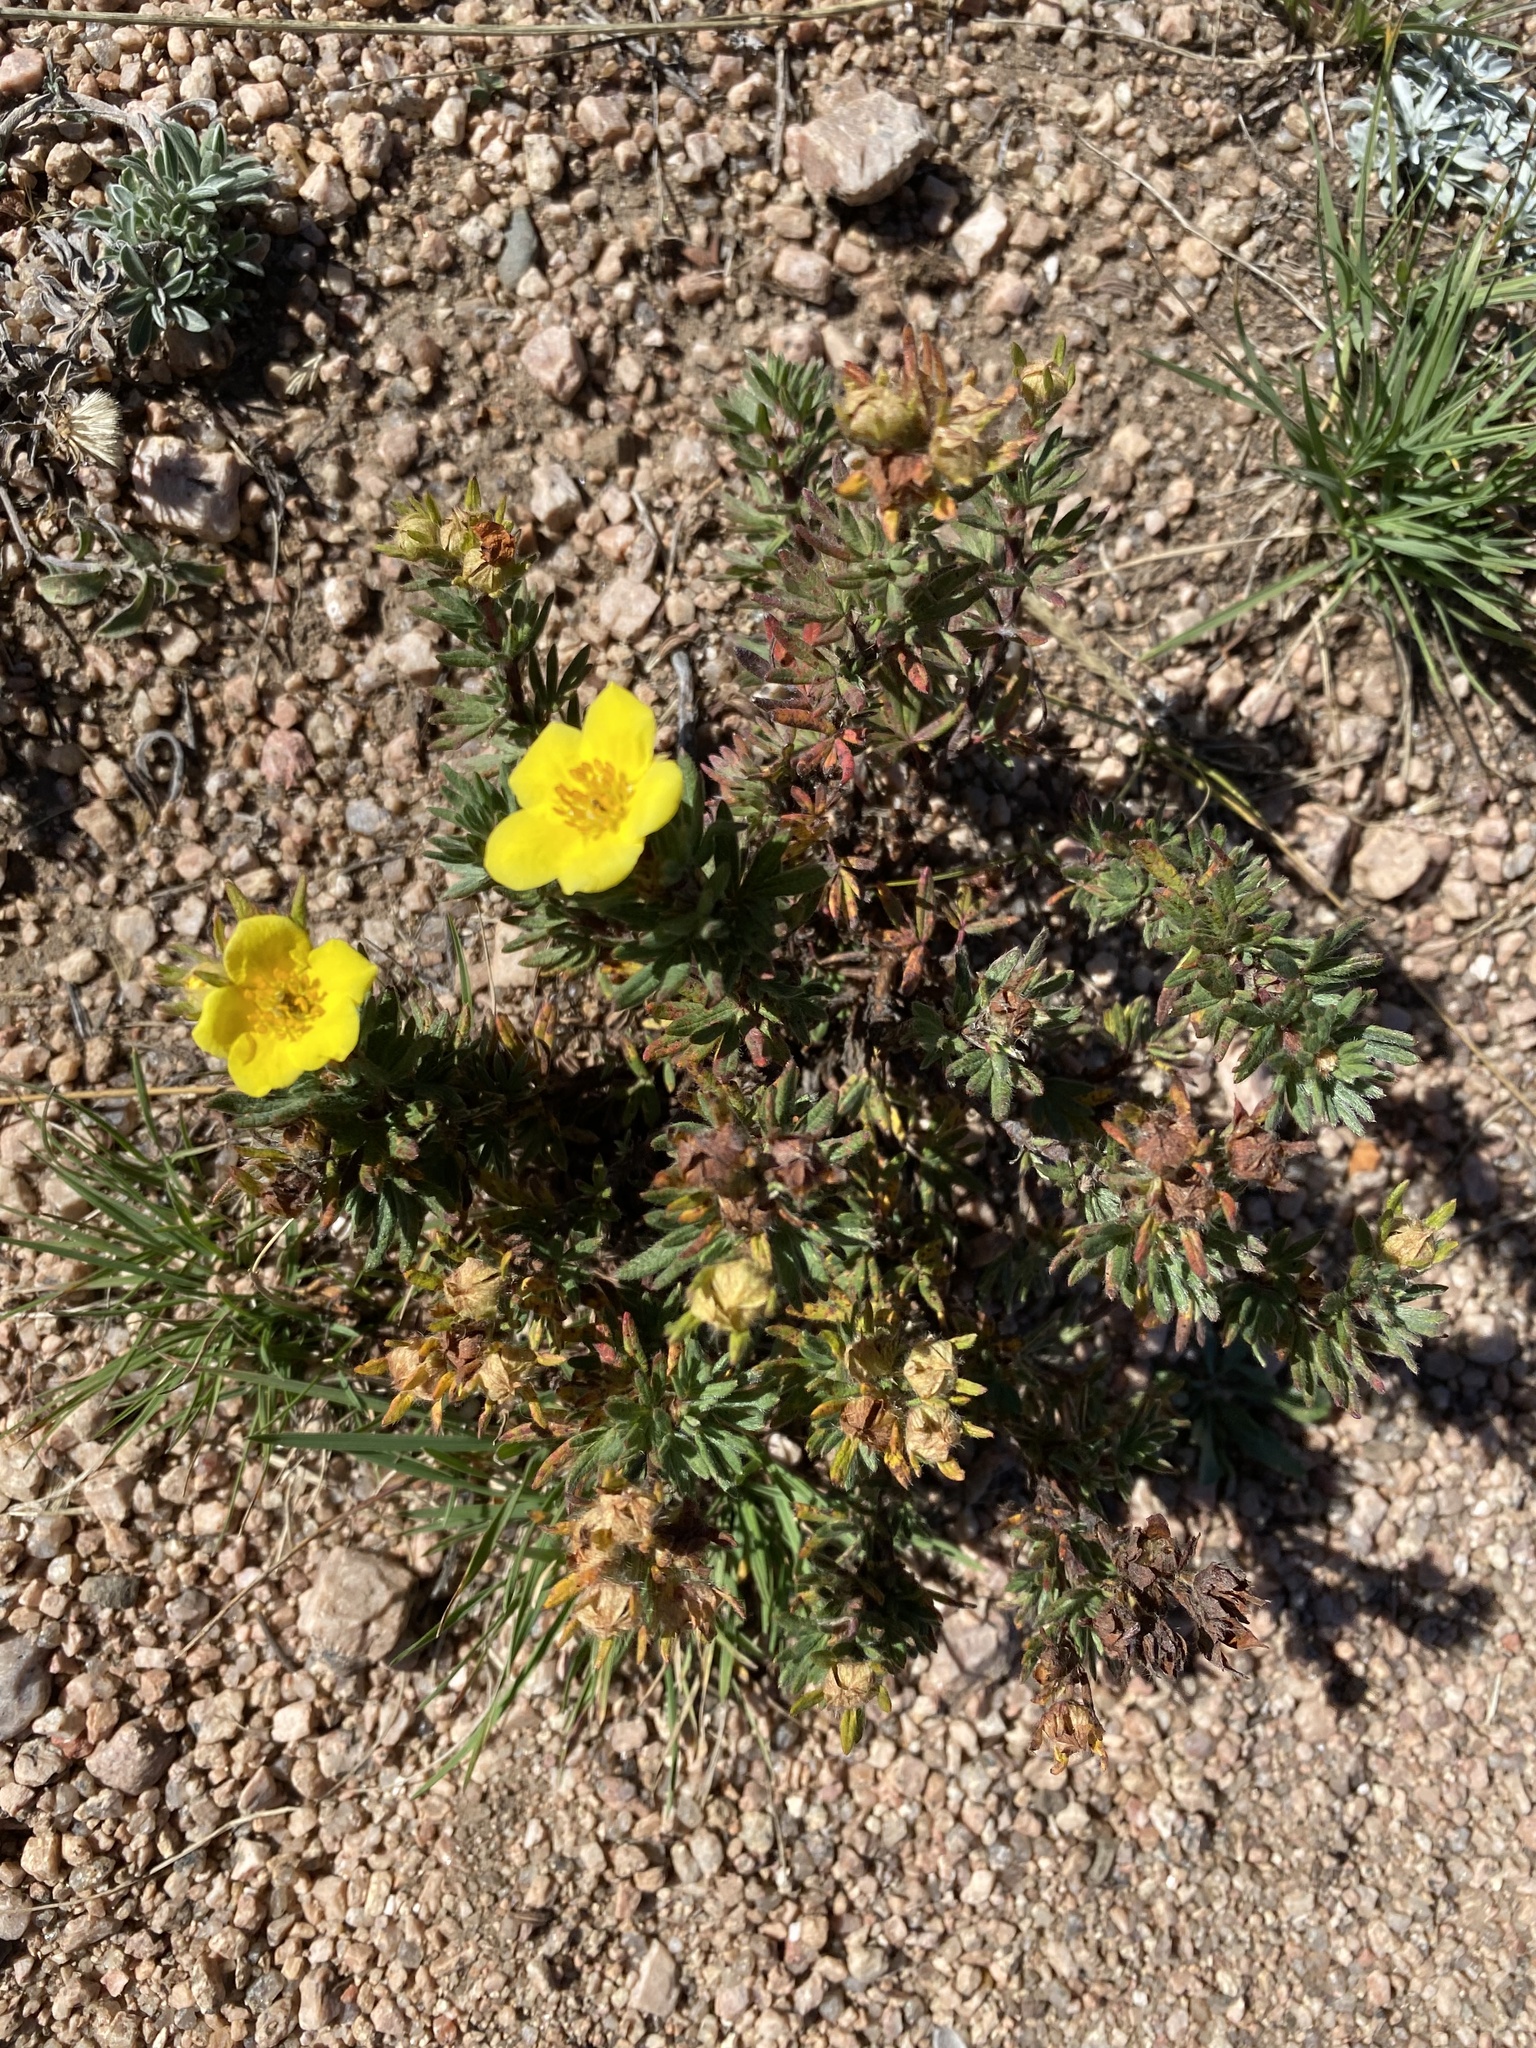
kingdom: Plantae
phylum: Tracheophyta
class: Magnoliopsida
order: Rosales
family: Rosaceae
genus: Dasiphora
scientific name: Dasiphora fruticosa
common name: Shrubby cinquefoil
